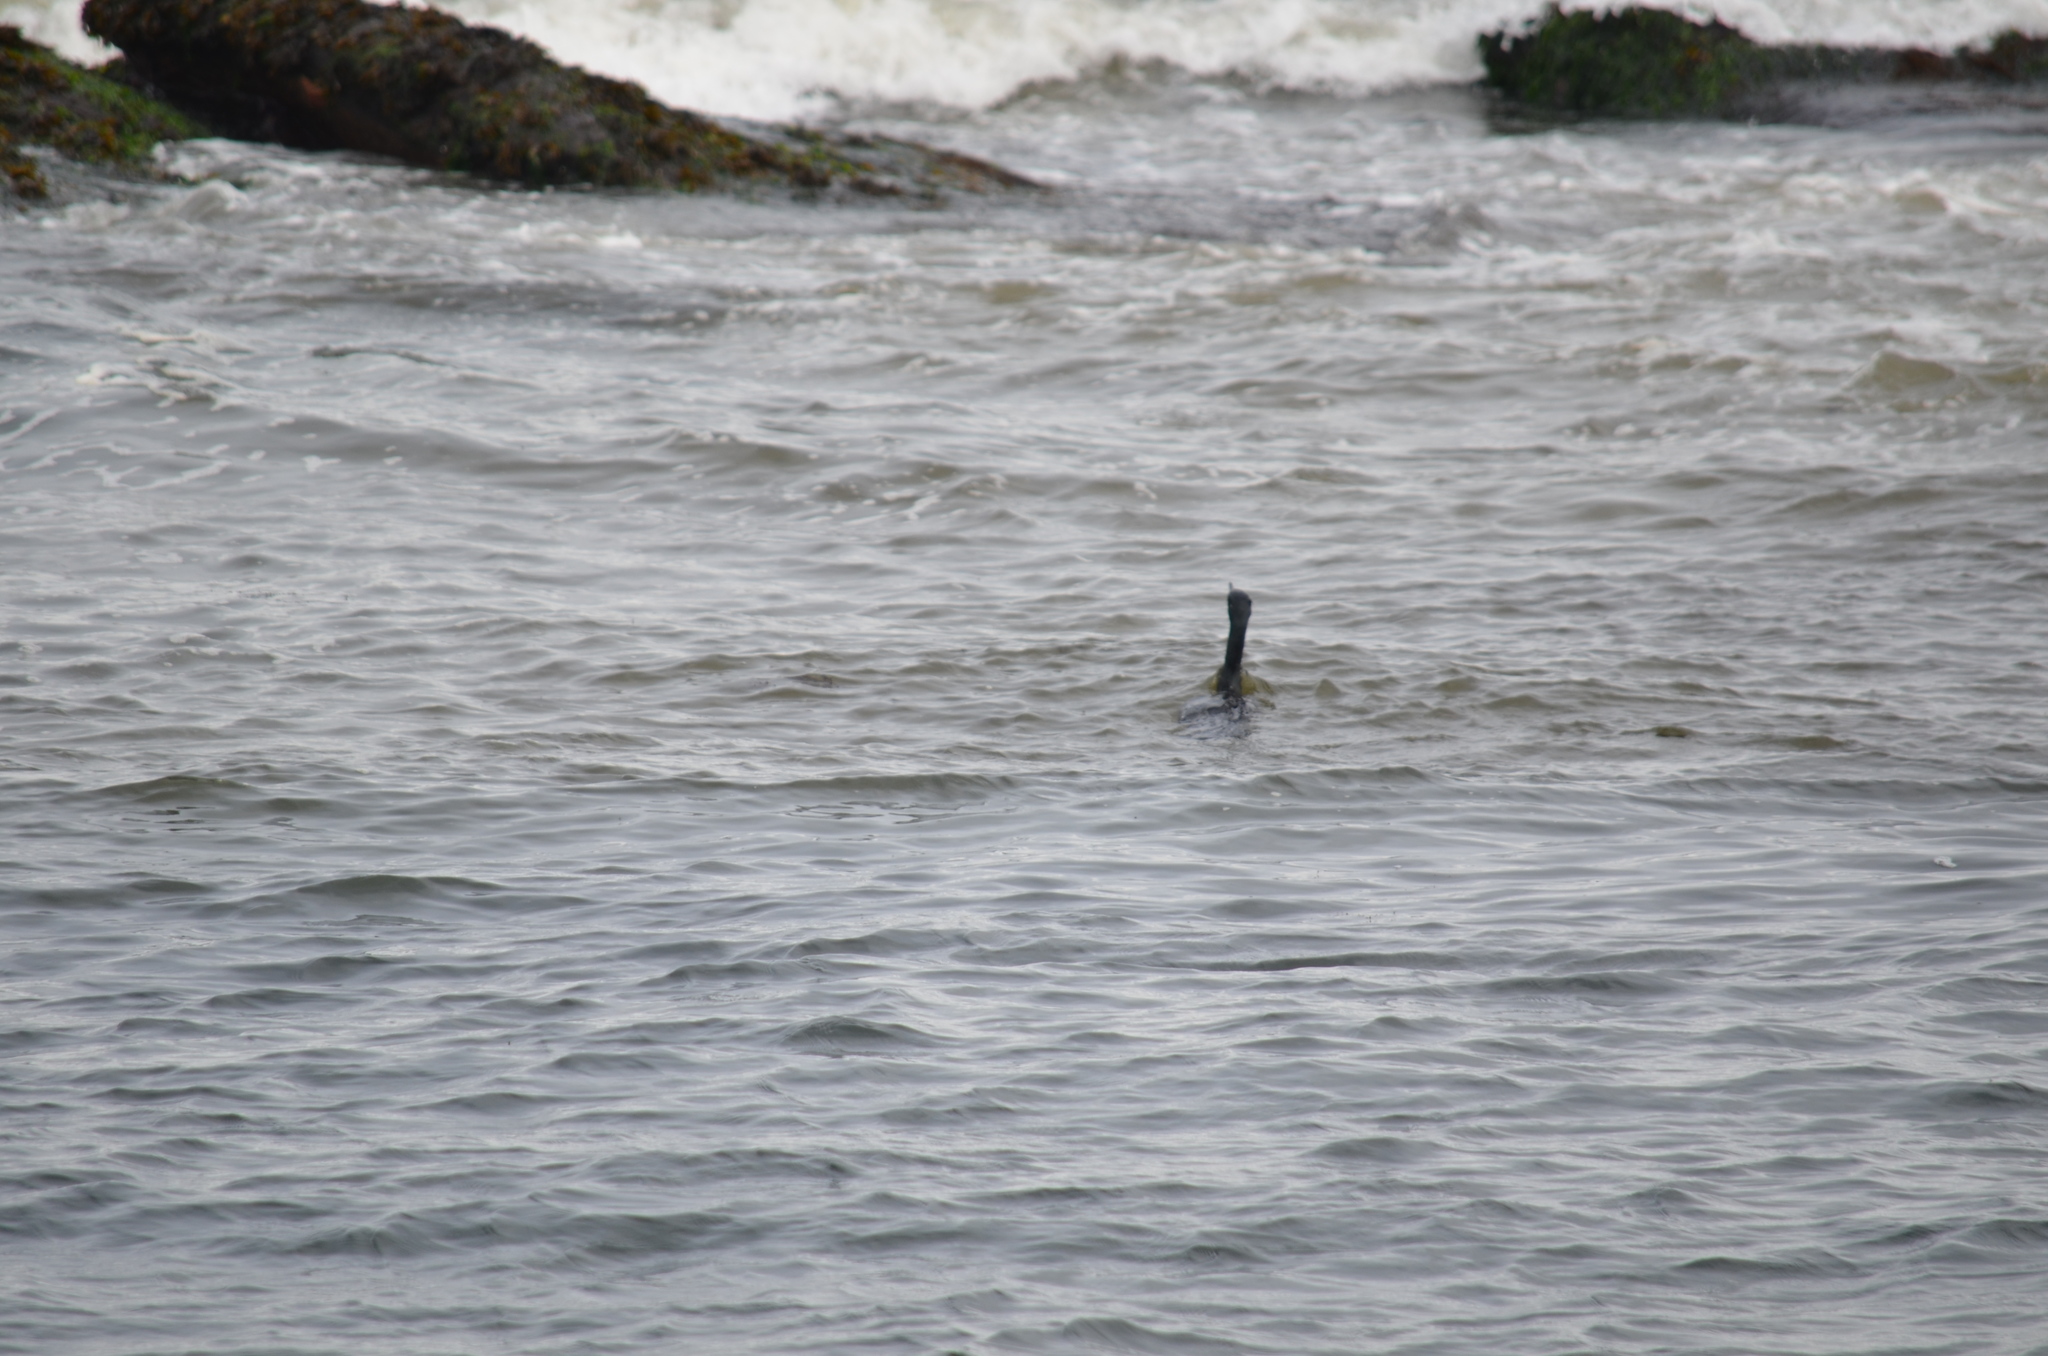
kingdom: Animalia
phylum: Chordata
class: Aves
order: Suliformes
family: Phalacrocoracidae
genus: Phalacrocorax
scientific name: Phalacrocorax auritus
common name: Double-crested cormorant
